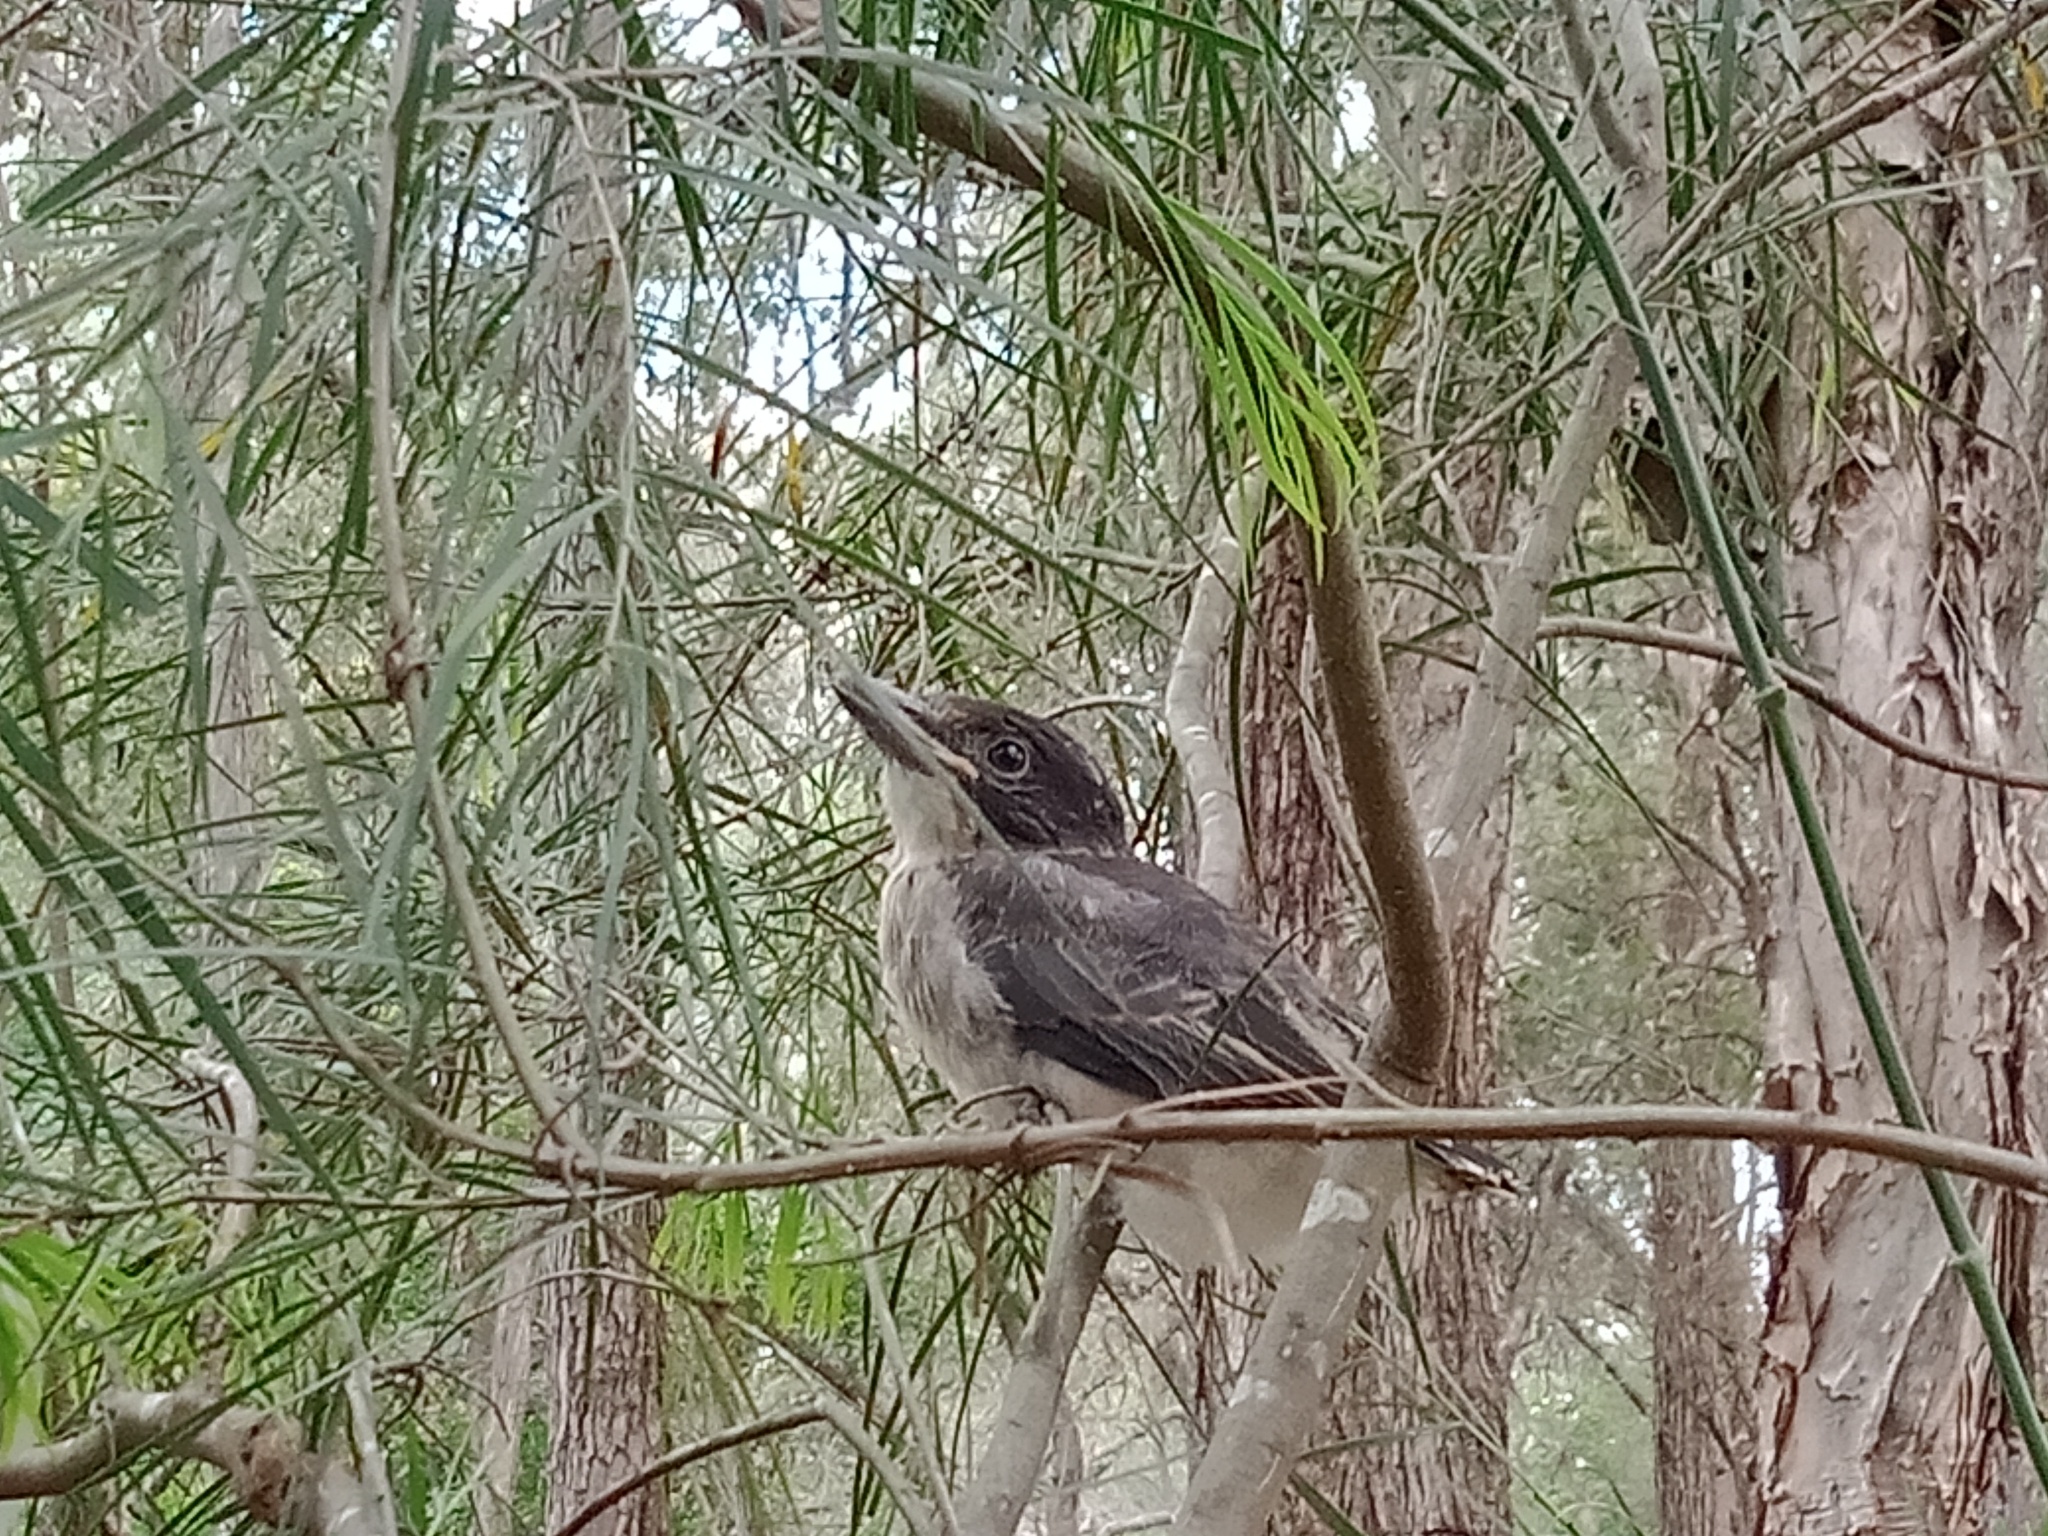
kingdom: Animalia
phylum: Chordata
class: Aves
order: Passeriformes
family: Cracticidae
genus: Cracticus
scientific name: Cracticus torquatus
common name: Grey butcherbird
